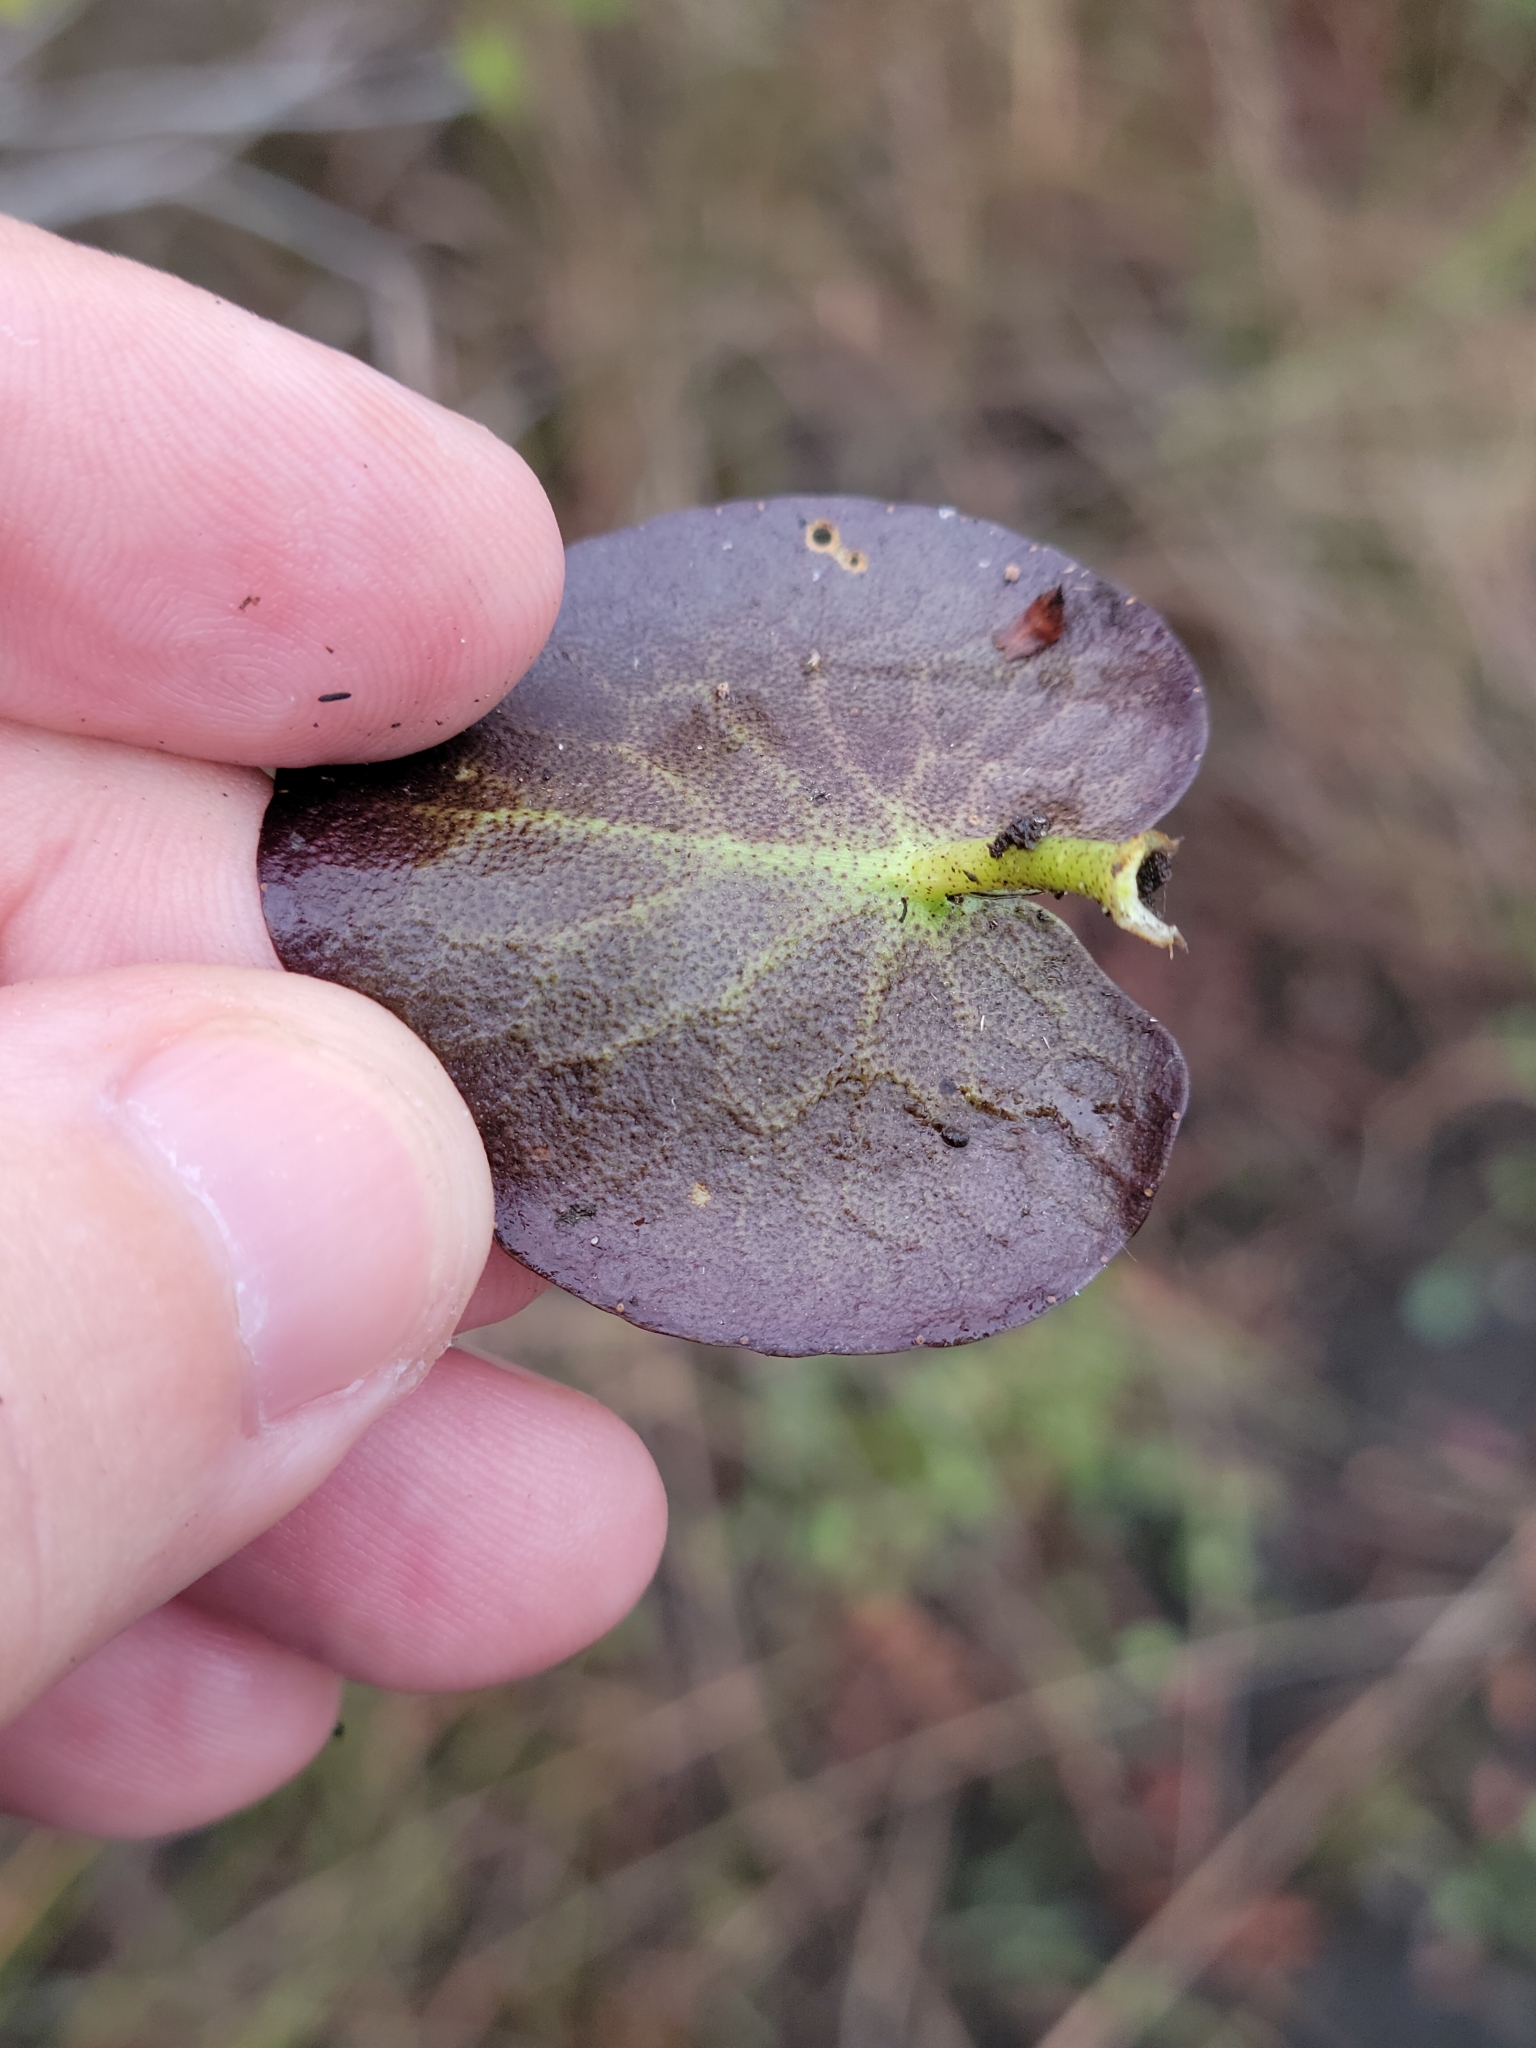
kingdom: Plantae
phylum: Tracheophyta
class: Magnoliopsida
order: Asterales
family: Menyanthaceae
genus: Nymphoides
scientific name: Nymphoides aquatica
